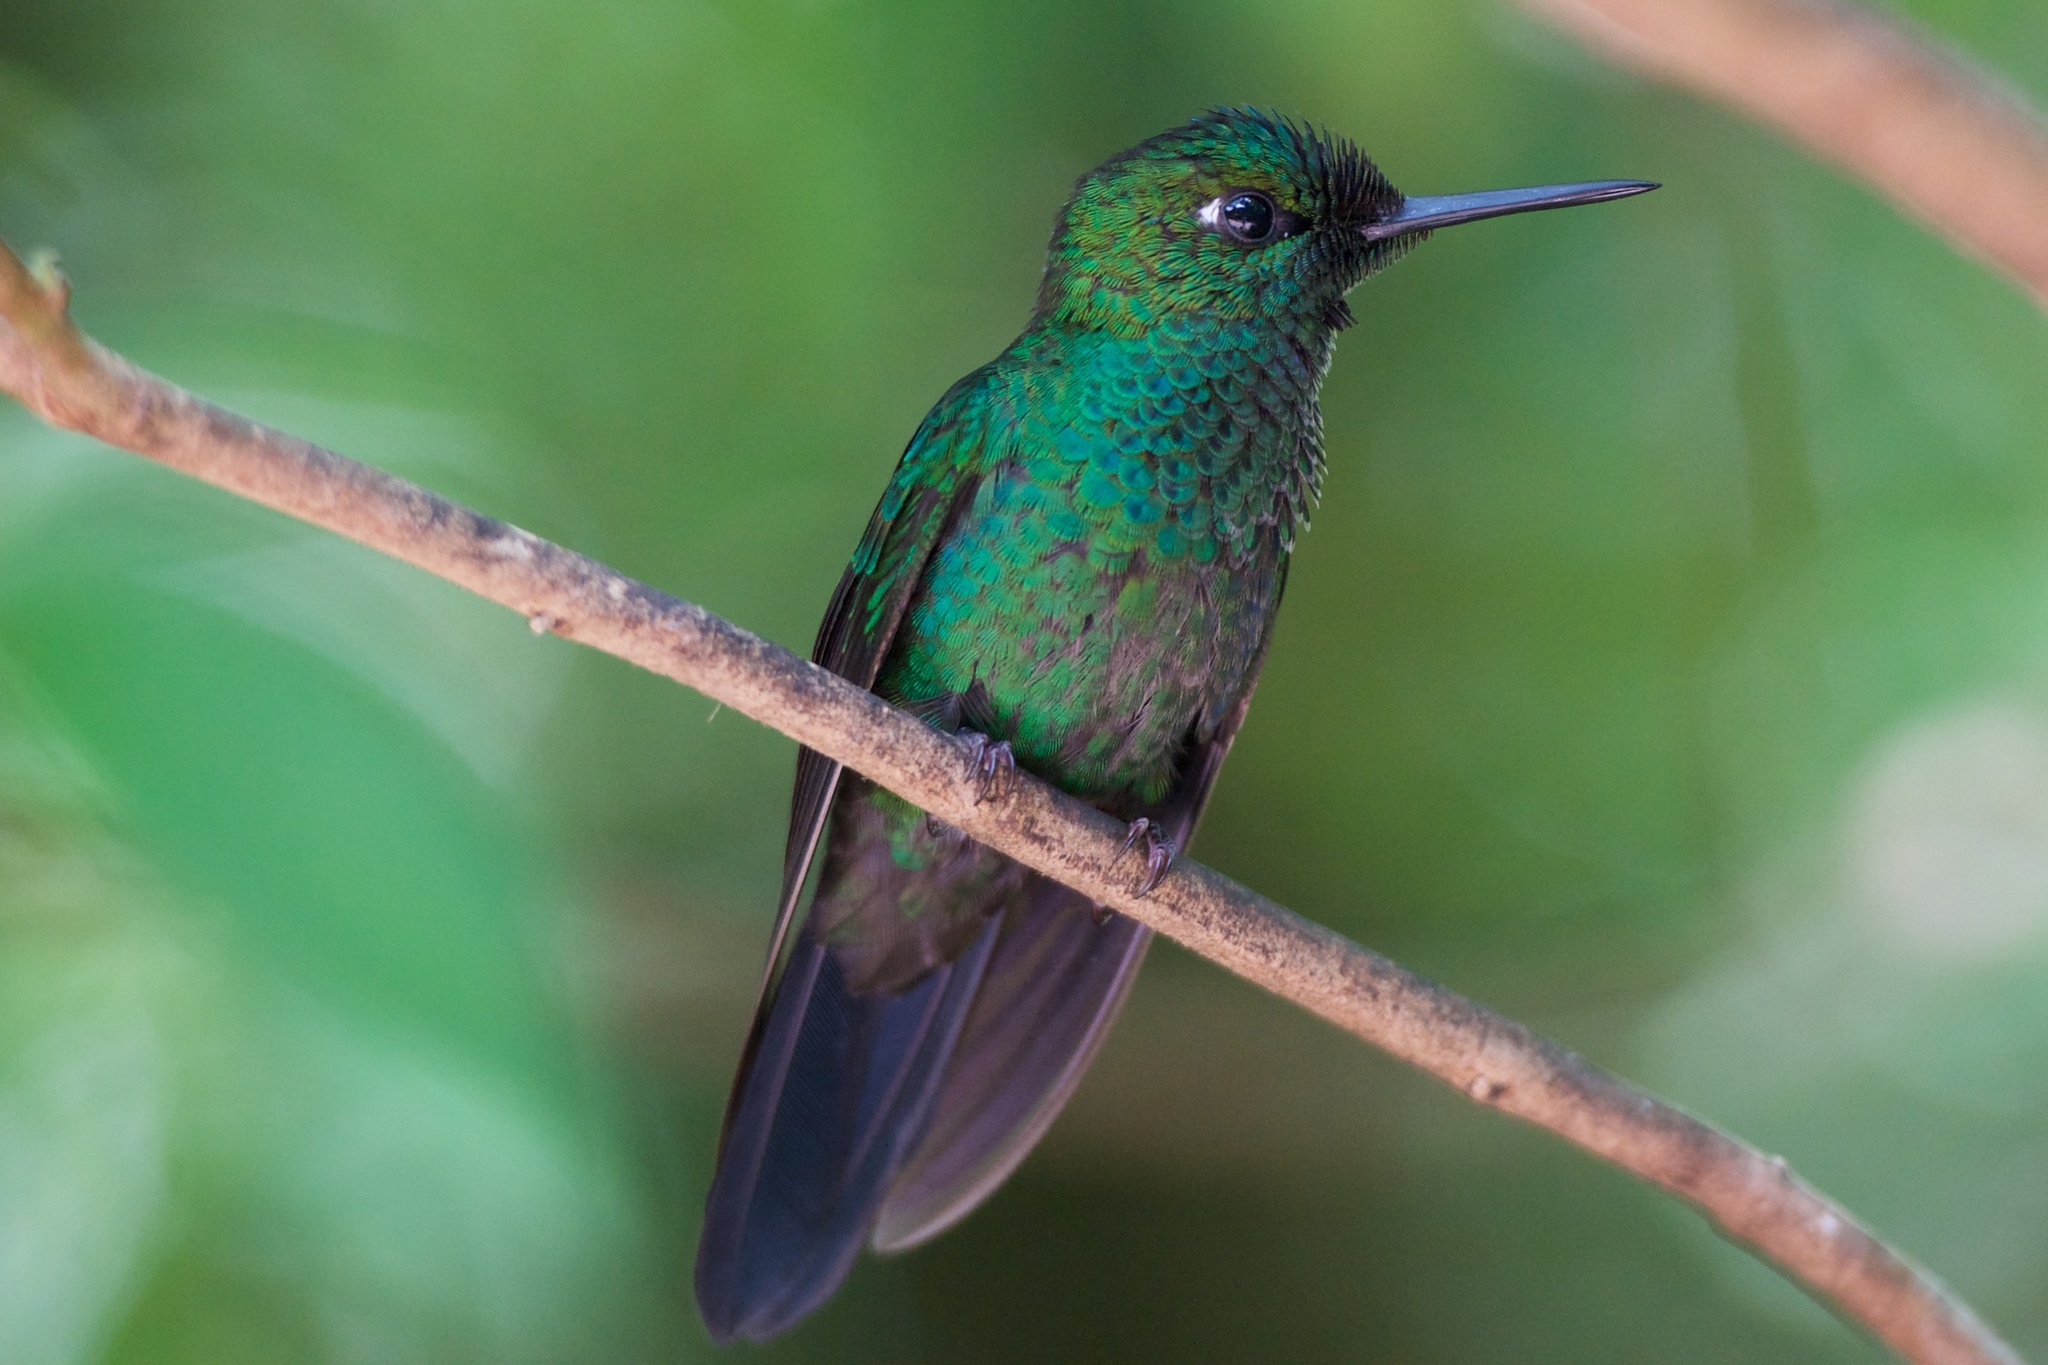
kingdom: Animalia
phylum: Chordata
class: Aves
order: Apodiformes
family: Trochilidae
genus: Heliodoxa
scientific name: Heliodoxa jacula
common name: Green-crowned brilliant
